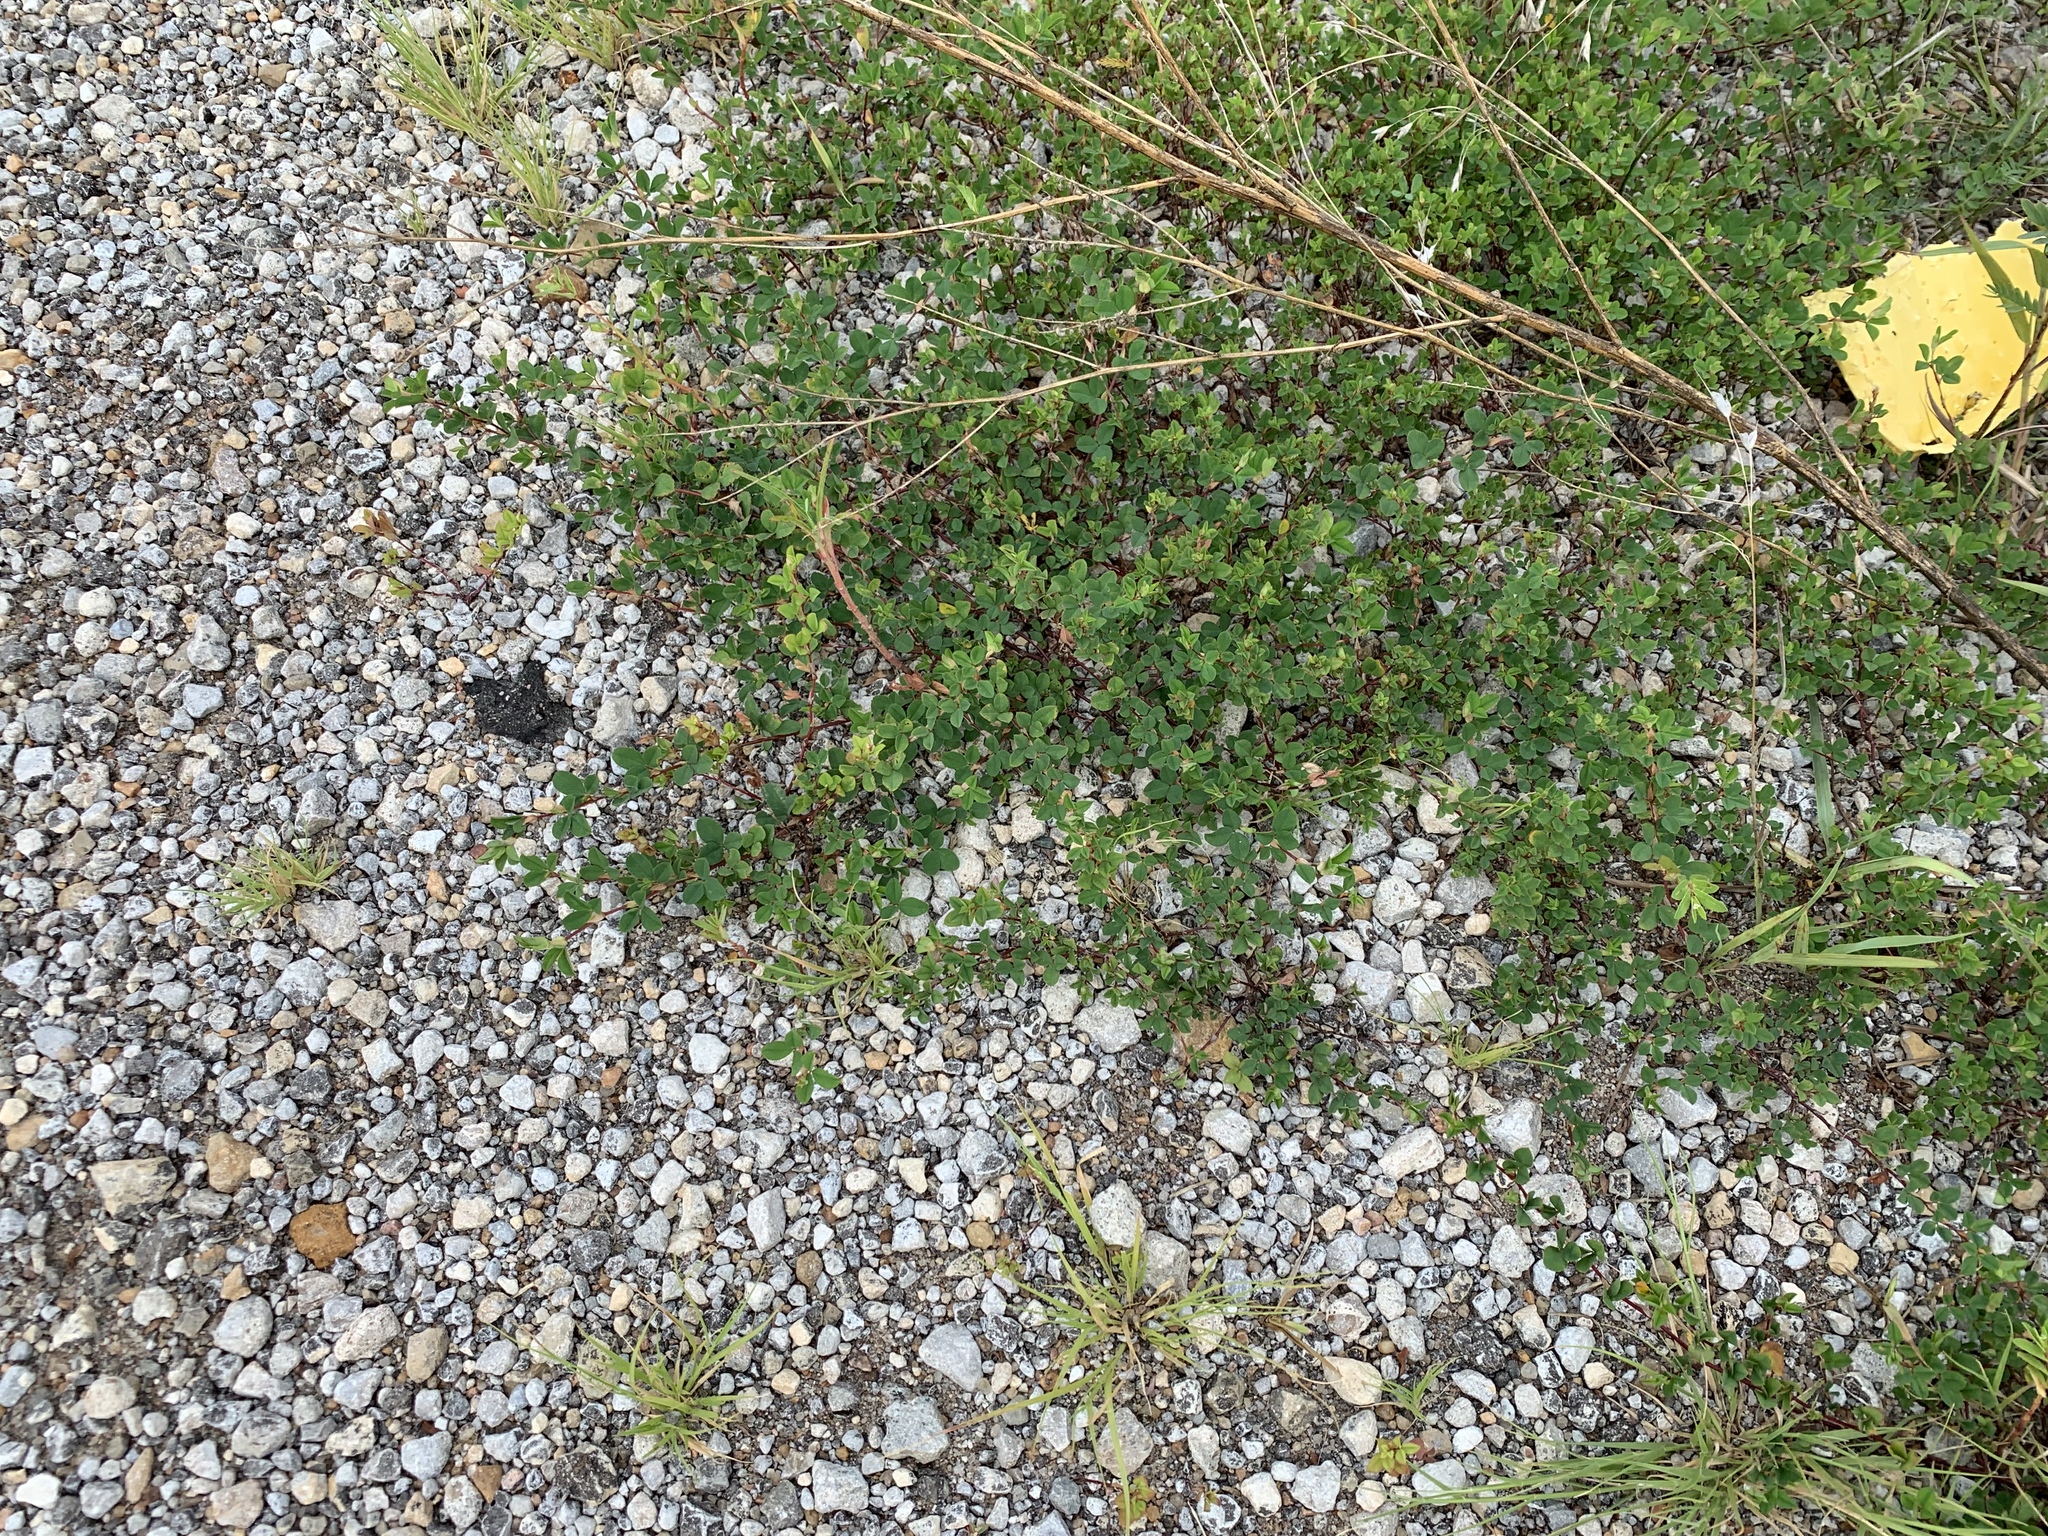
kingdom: Plantae
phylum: Tracheophyta
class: Magnoliopsida
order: Fabales
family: Fabaceae
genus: Kummerowia
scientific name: Kummerowia stipulacea
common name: Korean clover
